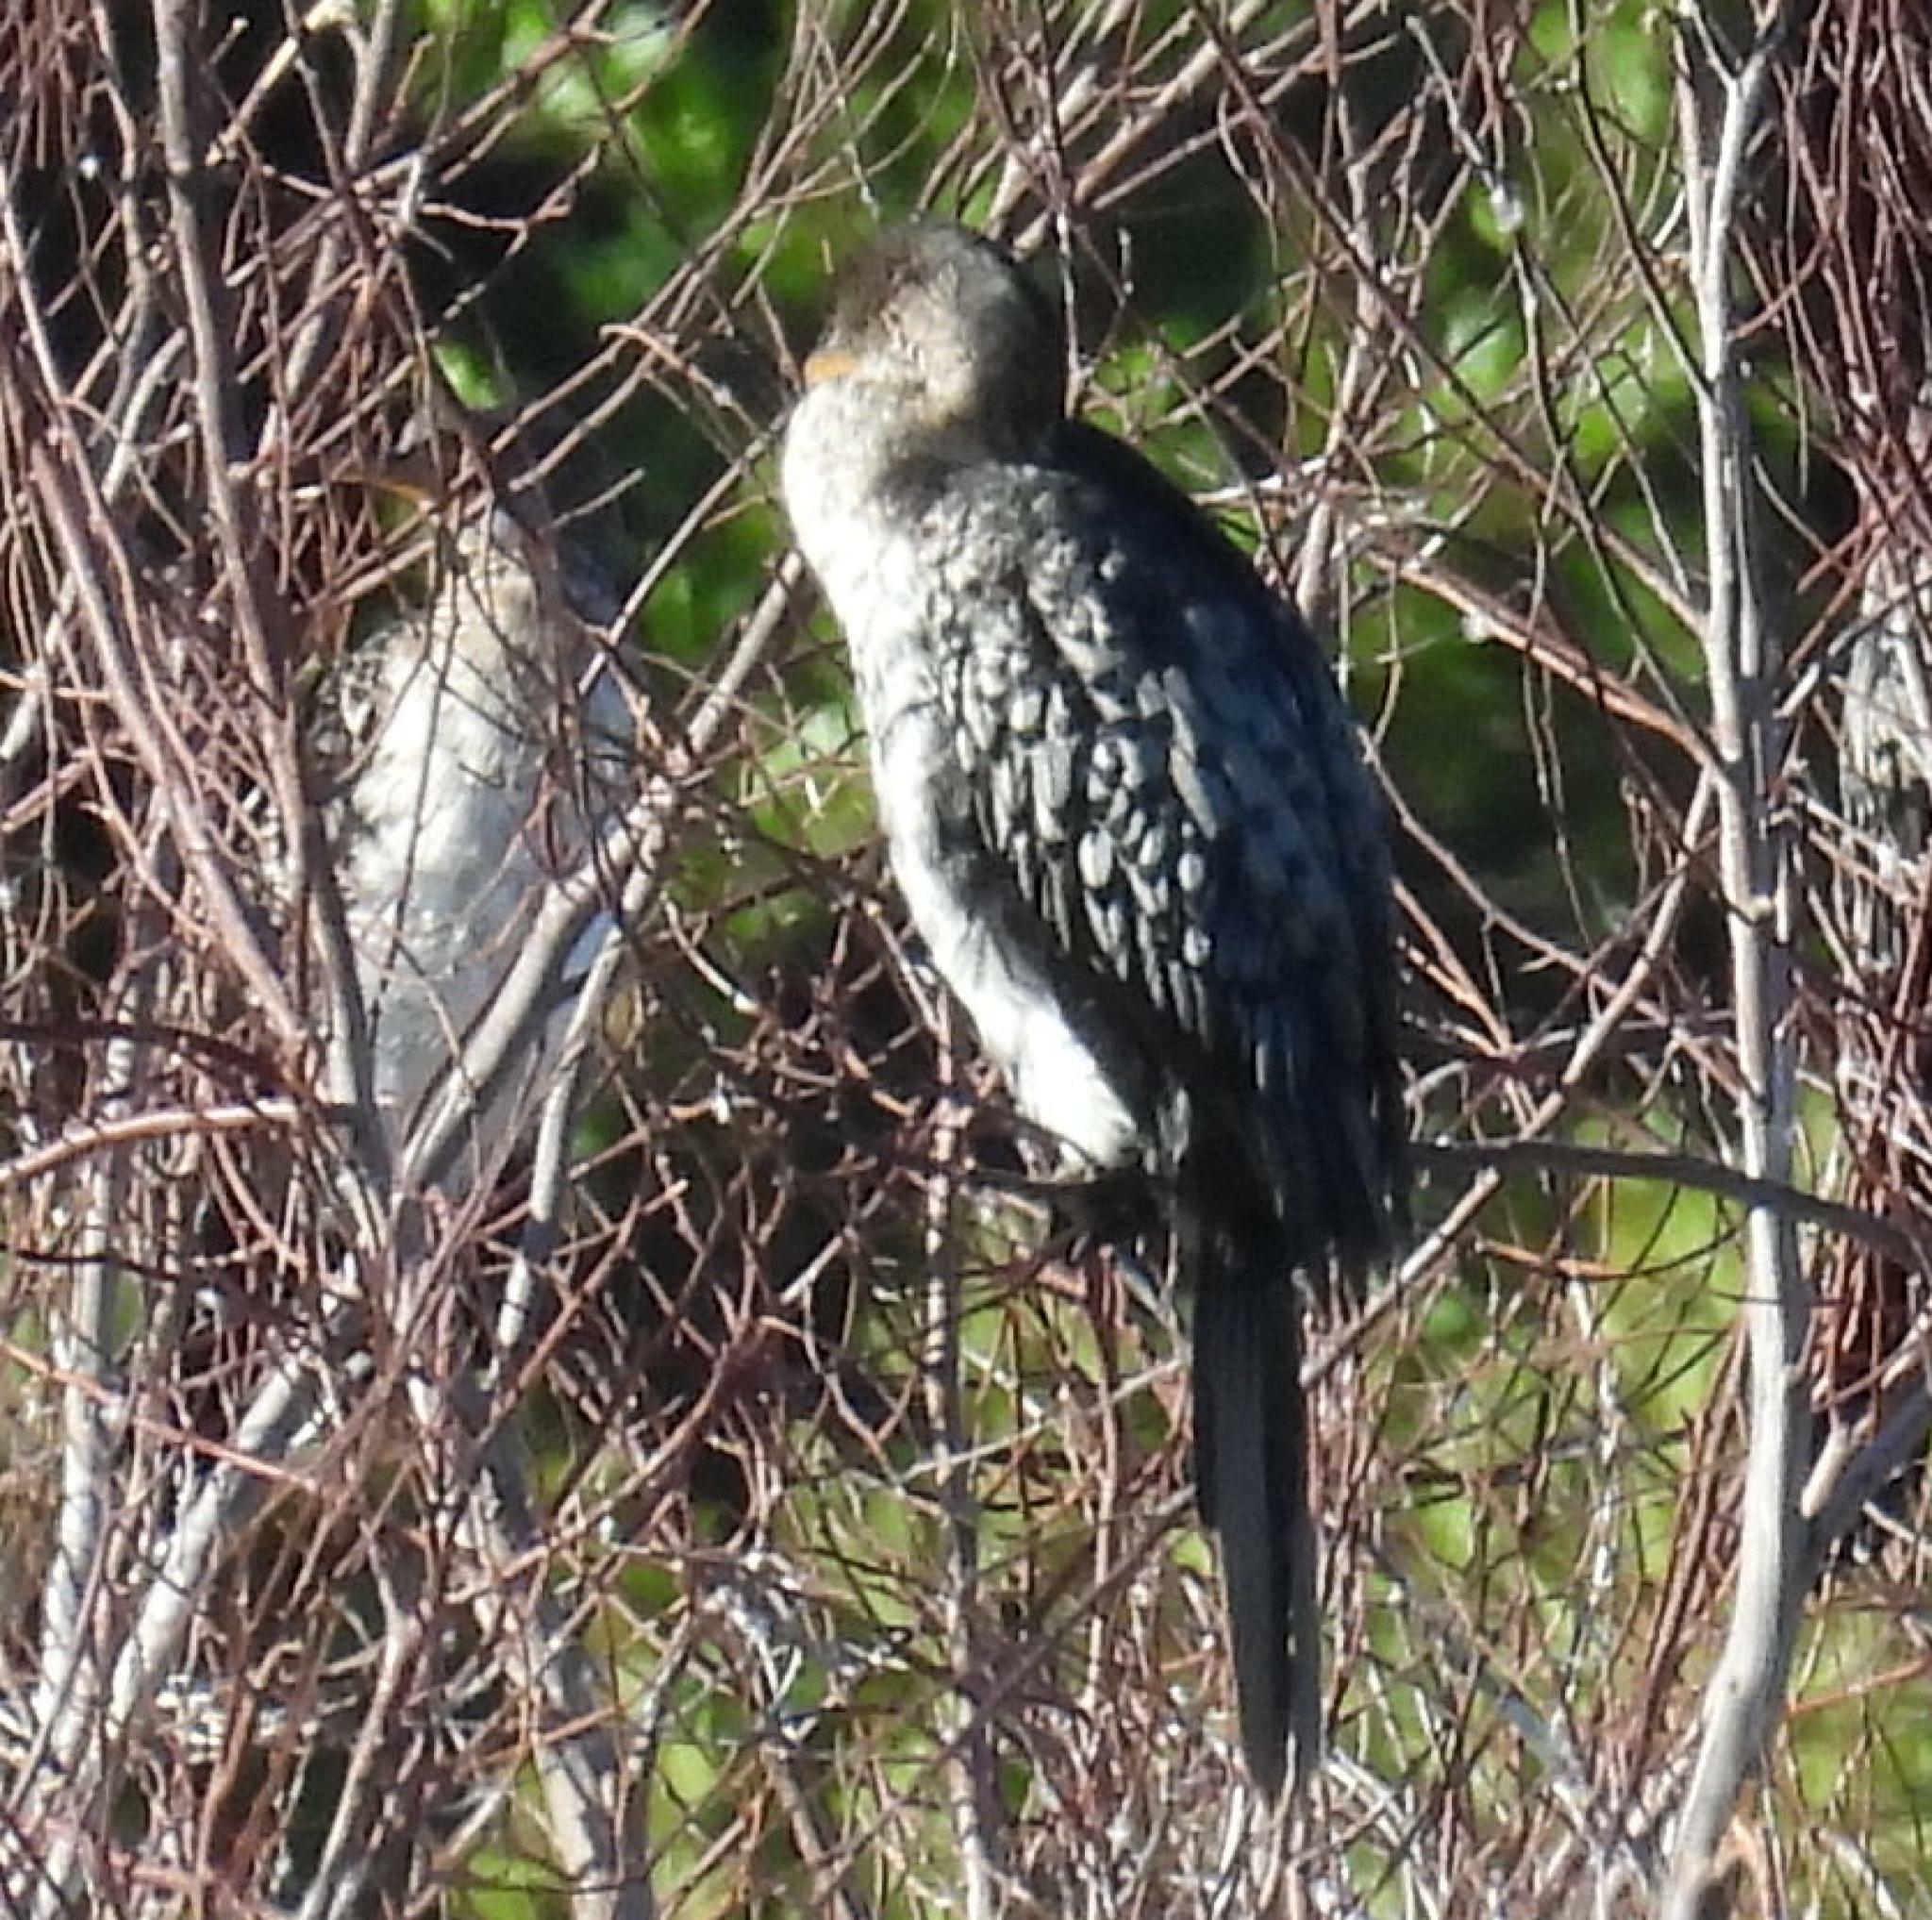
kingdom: Animalia
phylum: Chordata
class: Aves
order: Suliformes
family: Phalacrocoracidae
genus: Microcarbo
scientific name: Microcarbo africanus
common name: Long-tailed cormorant
